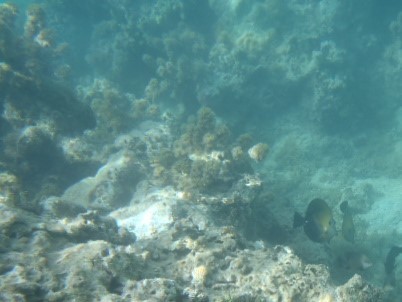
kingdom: Animalia
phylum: Chordata
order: Perciformes
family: Acanthuridae
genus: Zebrasoma
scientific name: Zebrasoma scopas
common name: Twotone tang
